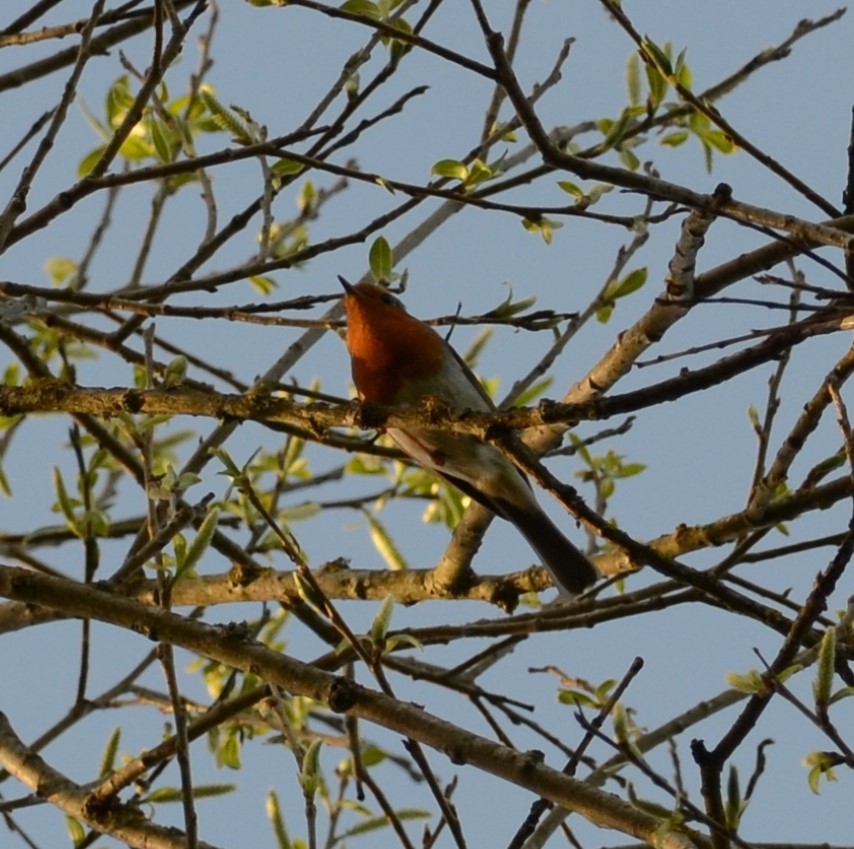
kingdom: Animalia
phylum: Chordata
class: Aves
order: Passeriformes
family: Muscicapidae
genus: Erithacus
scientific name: Erithacus rubecula
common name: European robin
